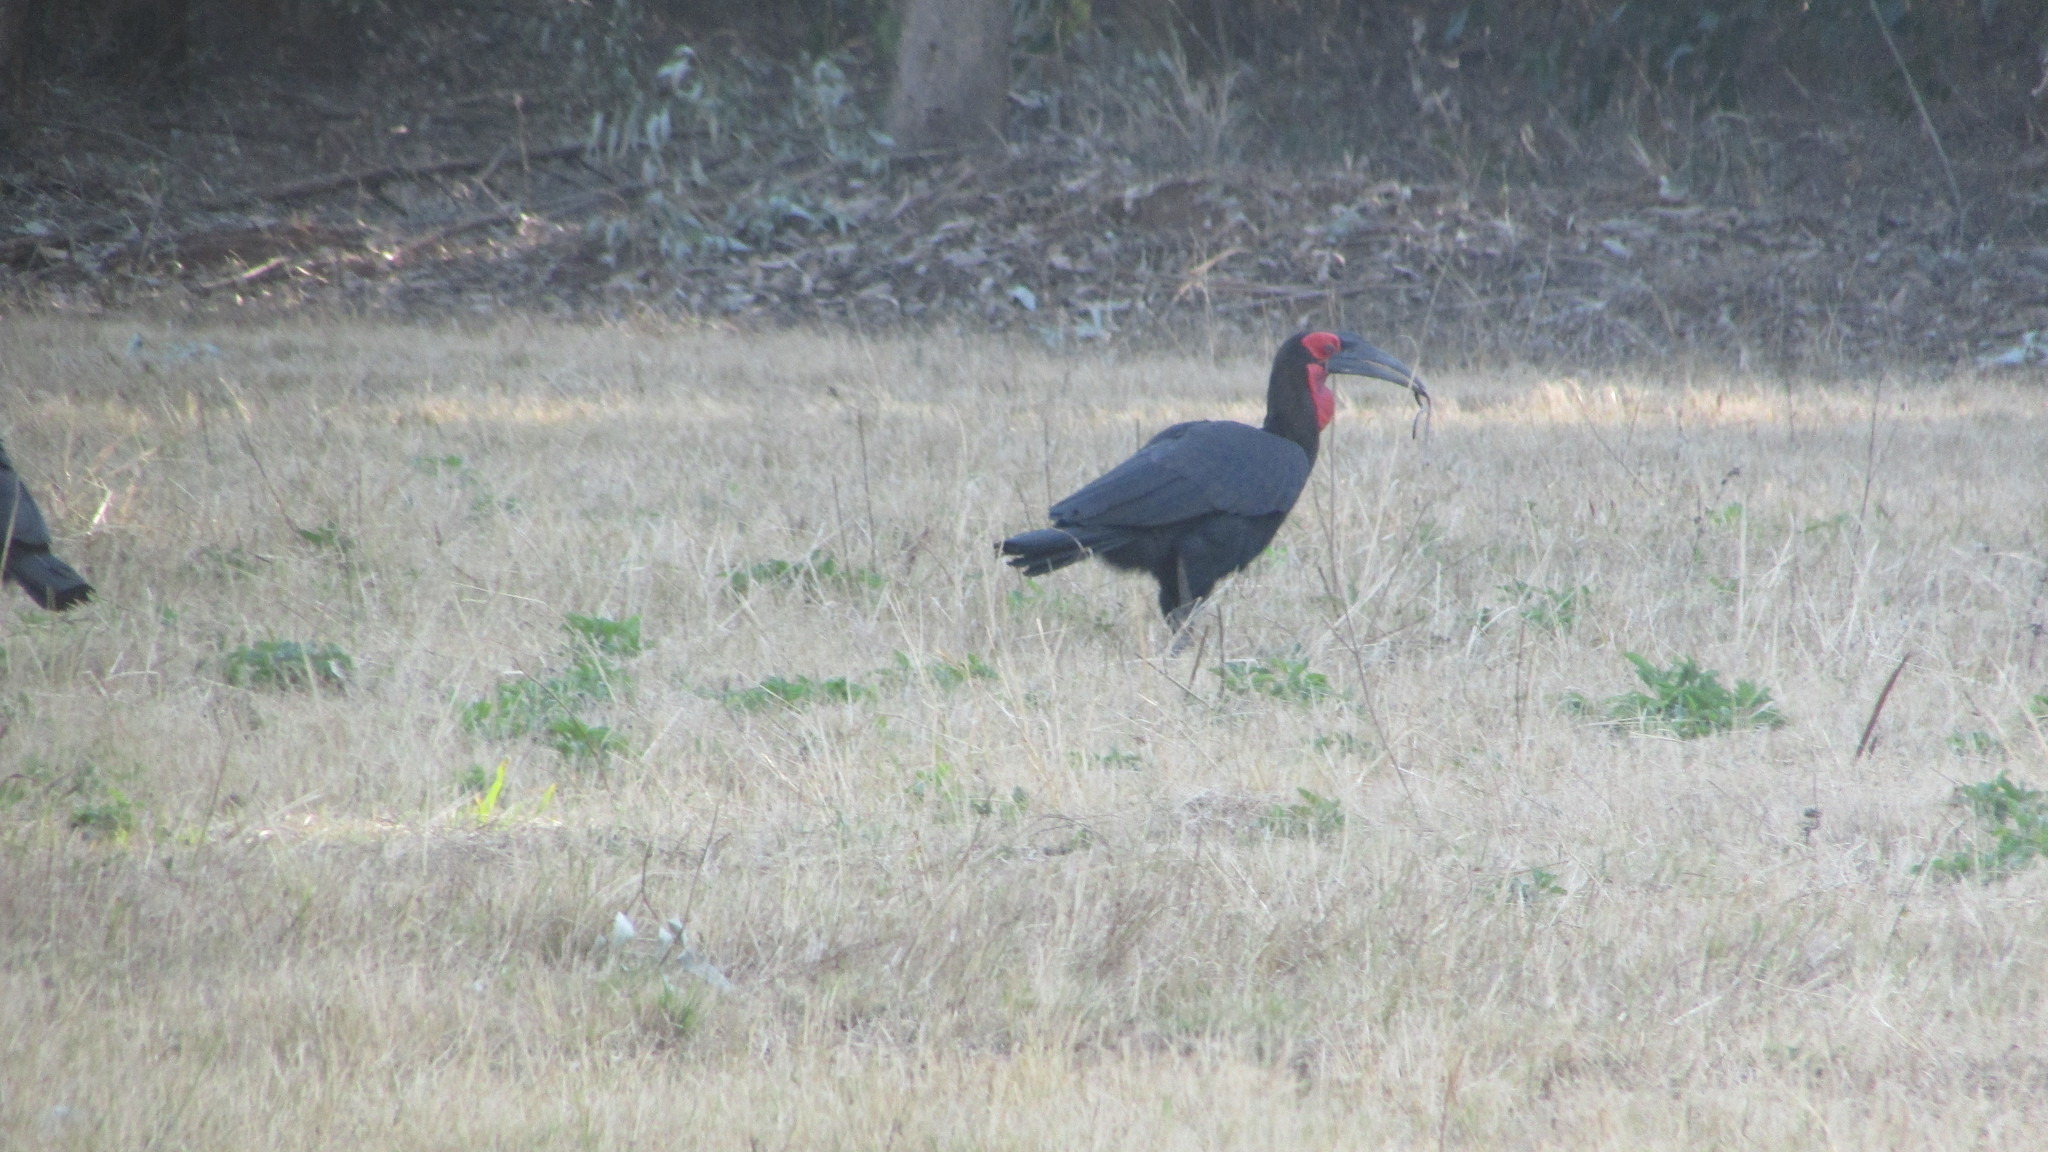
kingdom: Animalia
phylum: Chordata
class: Aves
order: Bucerotiformes
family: Bucorvidae
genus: Bucorvus
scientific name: Bucorvus leadbeateri
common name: Southern ground-hornbill
